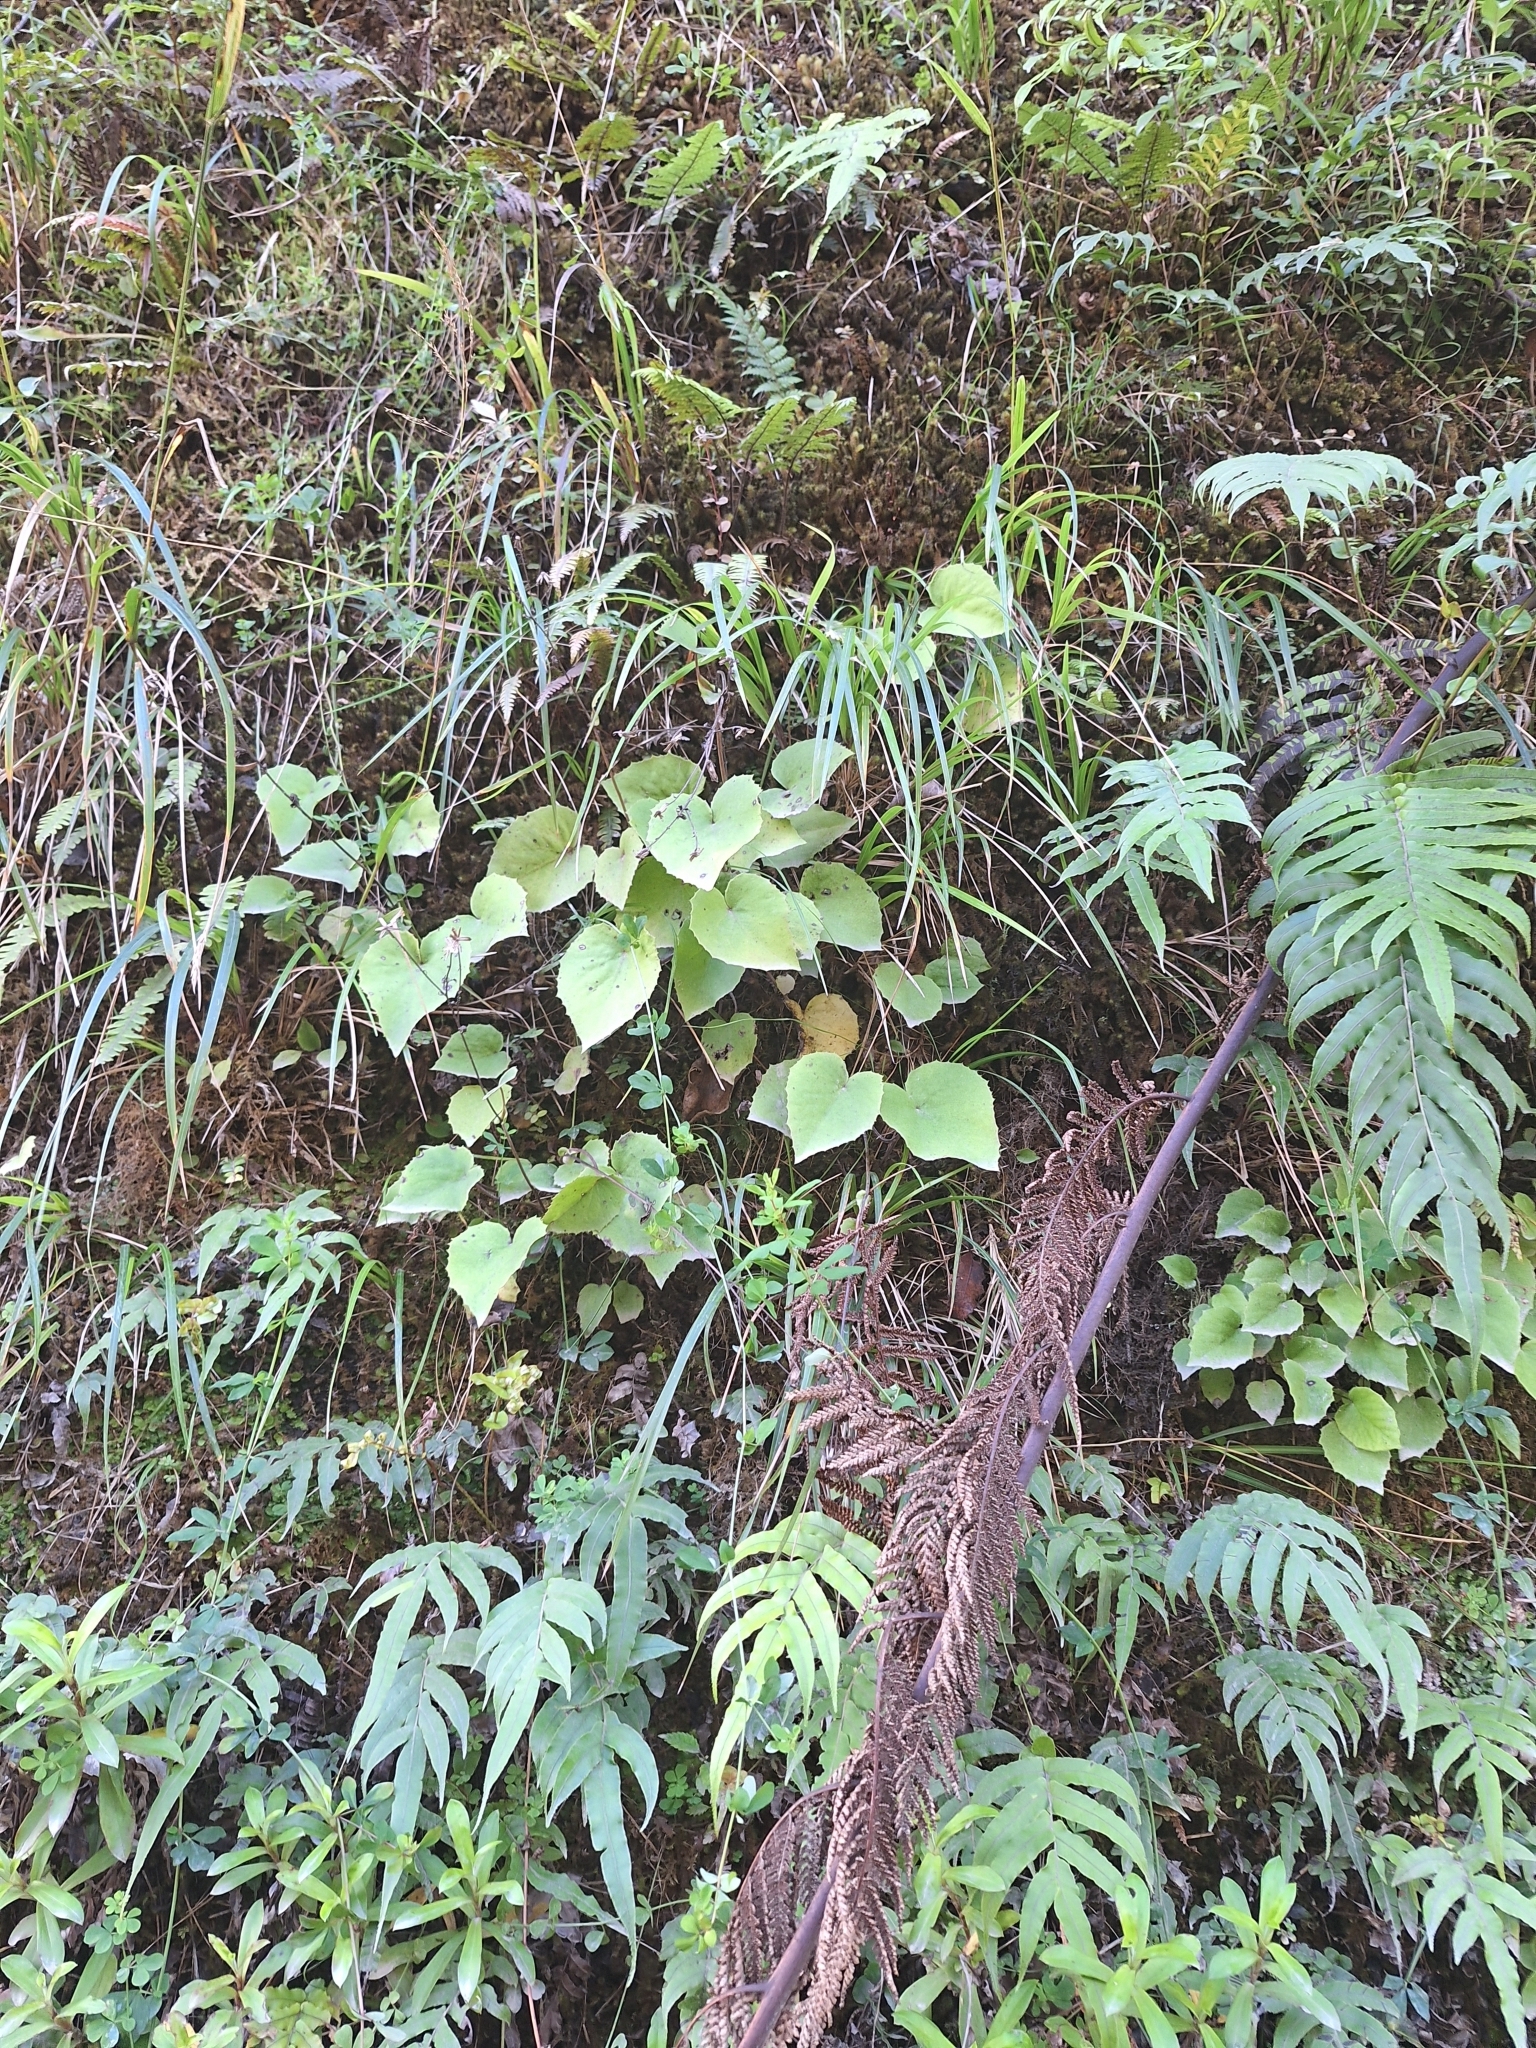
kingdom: Plantae
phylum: Tracheophyta
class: Magnoliopsida
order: Asterales
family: Asteraceae
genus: Brachyglottis
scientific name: Brachyglottis turneri
